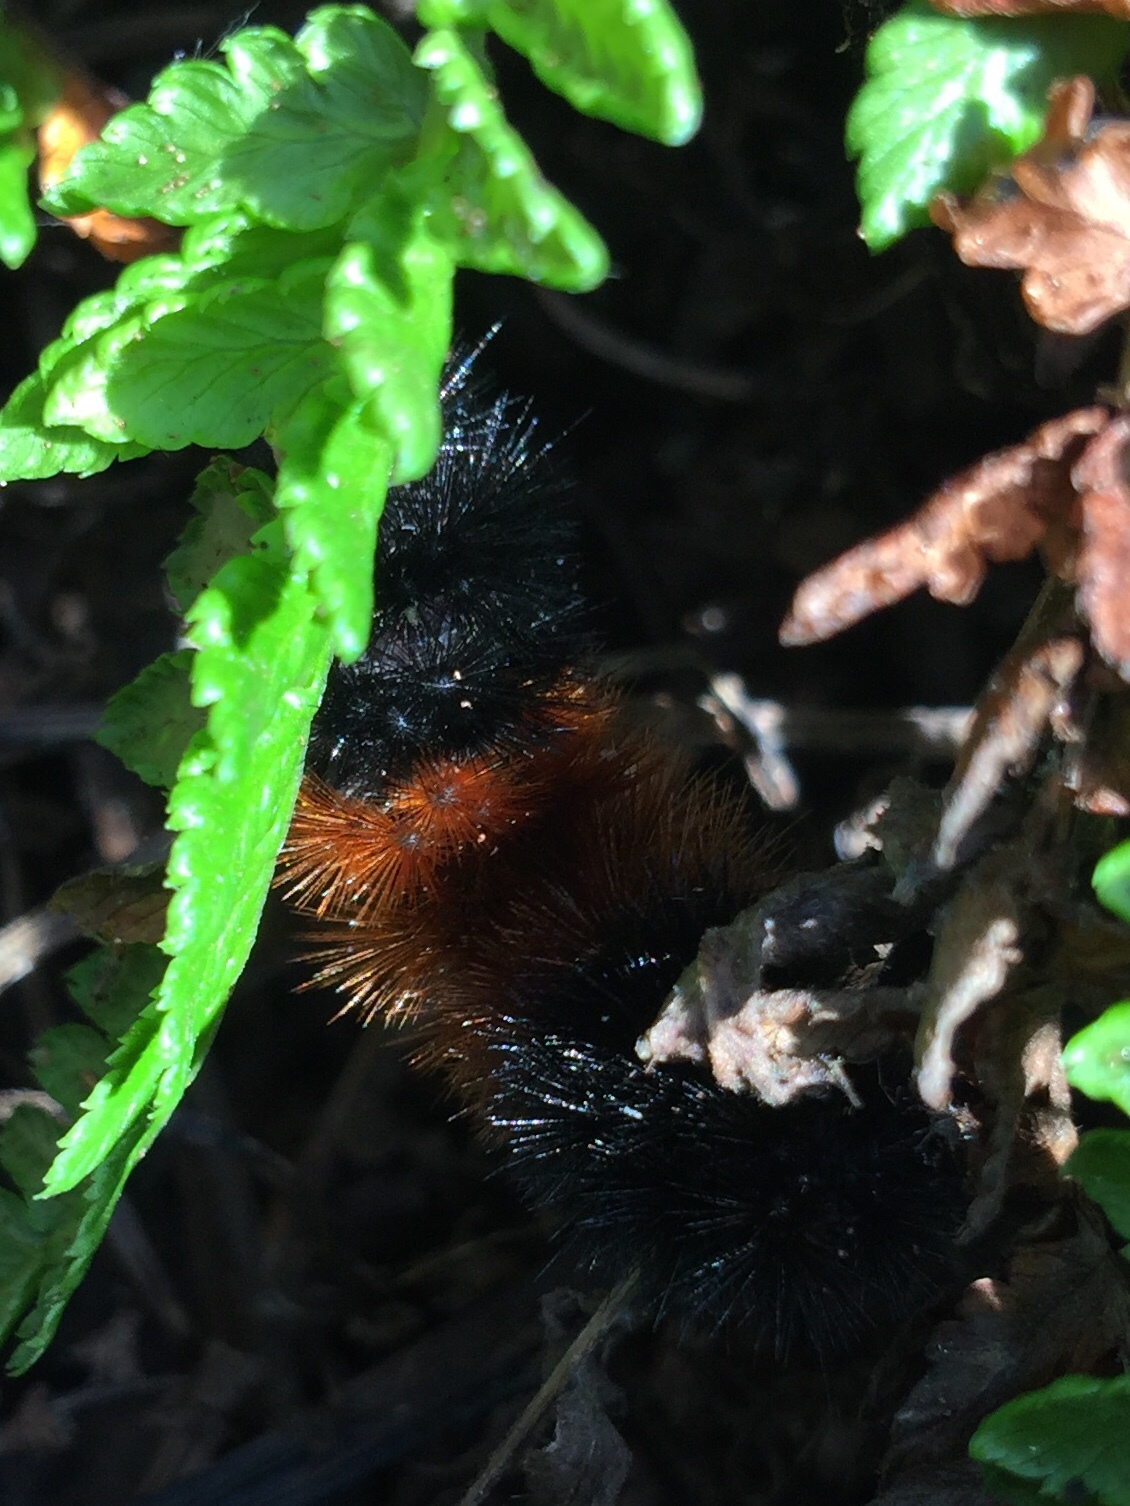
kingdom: Animalia
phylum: Arthropoda
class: Insecta
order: Lepidoptera
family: Erebidae
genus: Pyrrharctia
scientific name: Pyrrharctia isabella
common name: Isabella tiger moth
